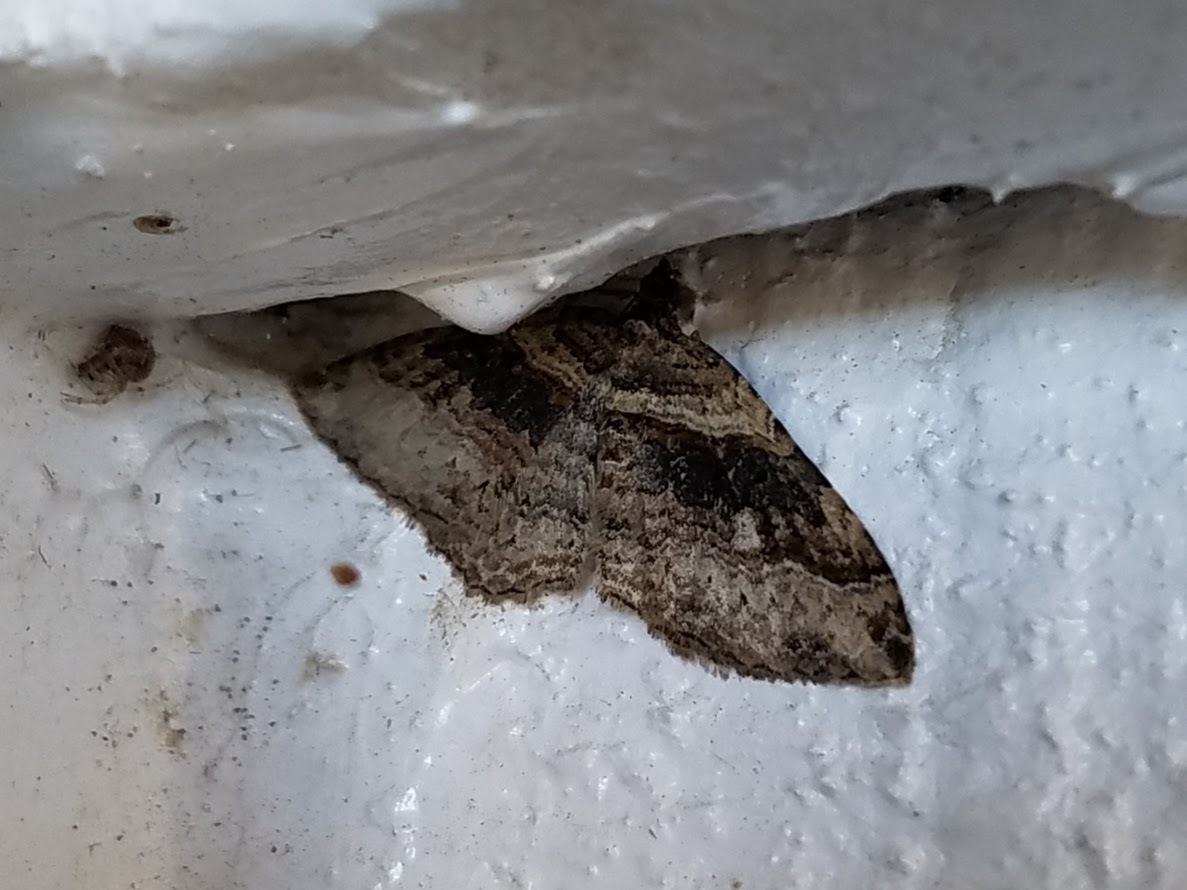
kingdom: Animalia
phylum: Arthropoda
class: Insecta
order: Lepidoptera
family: Geometridae
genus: Costaconvexa
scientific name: Costaconvexa centrostrigaria
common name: Bent-line carpet
